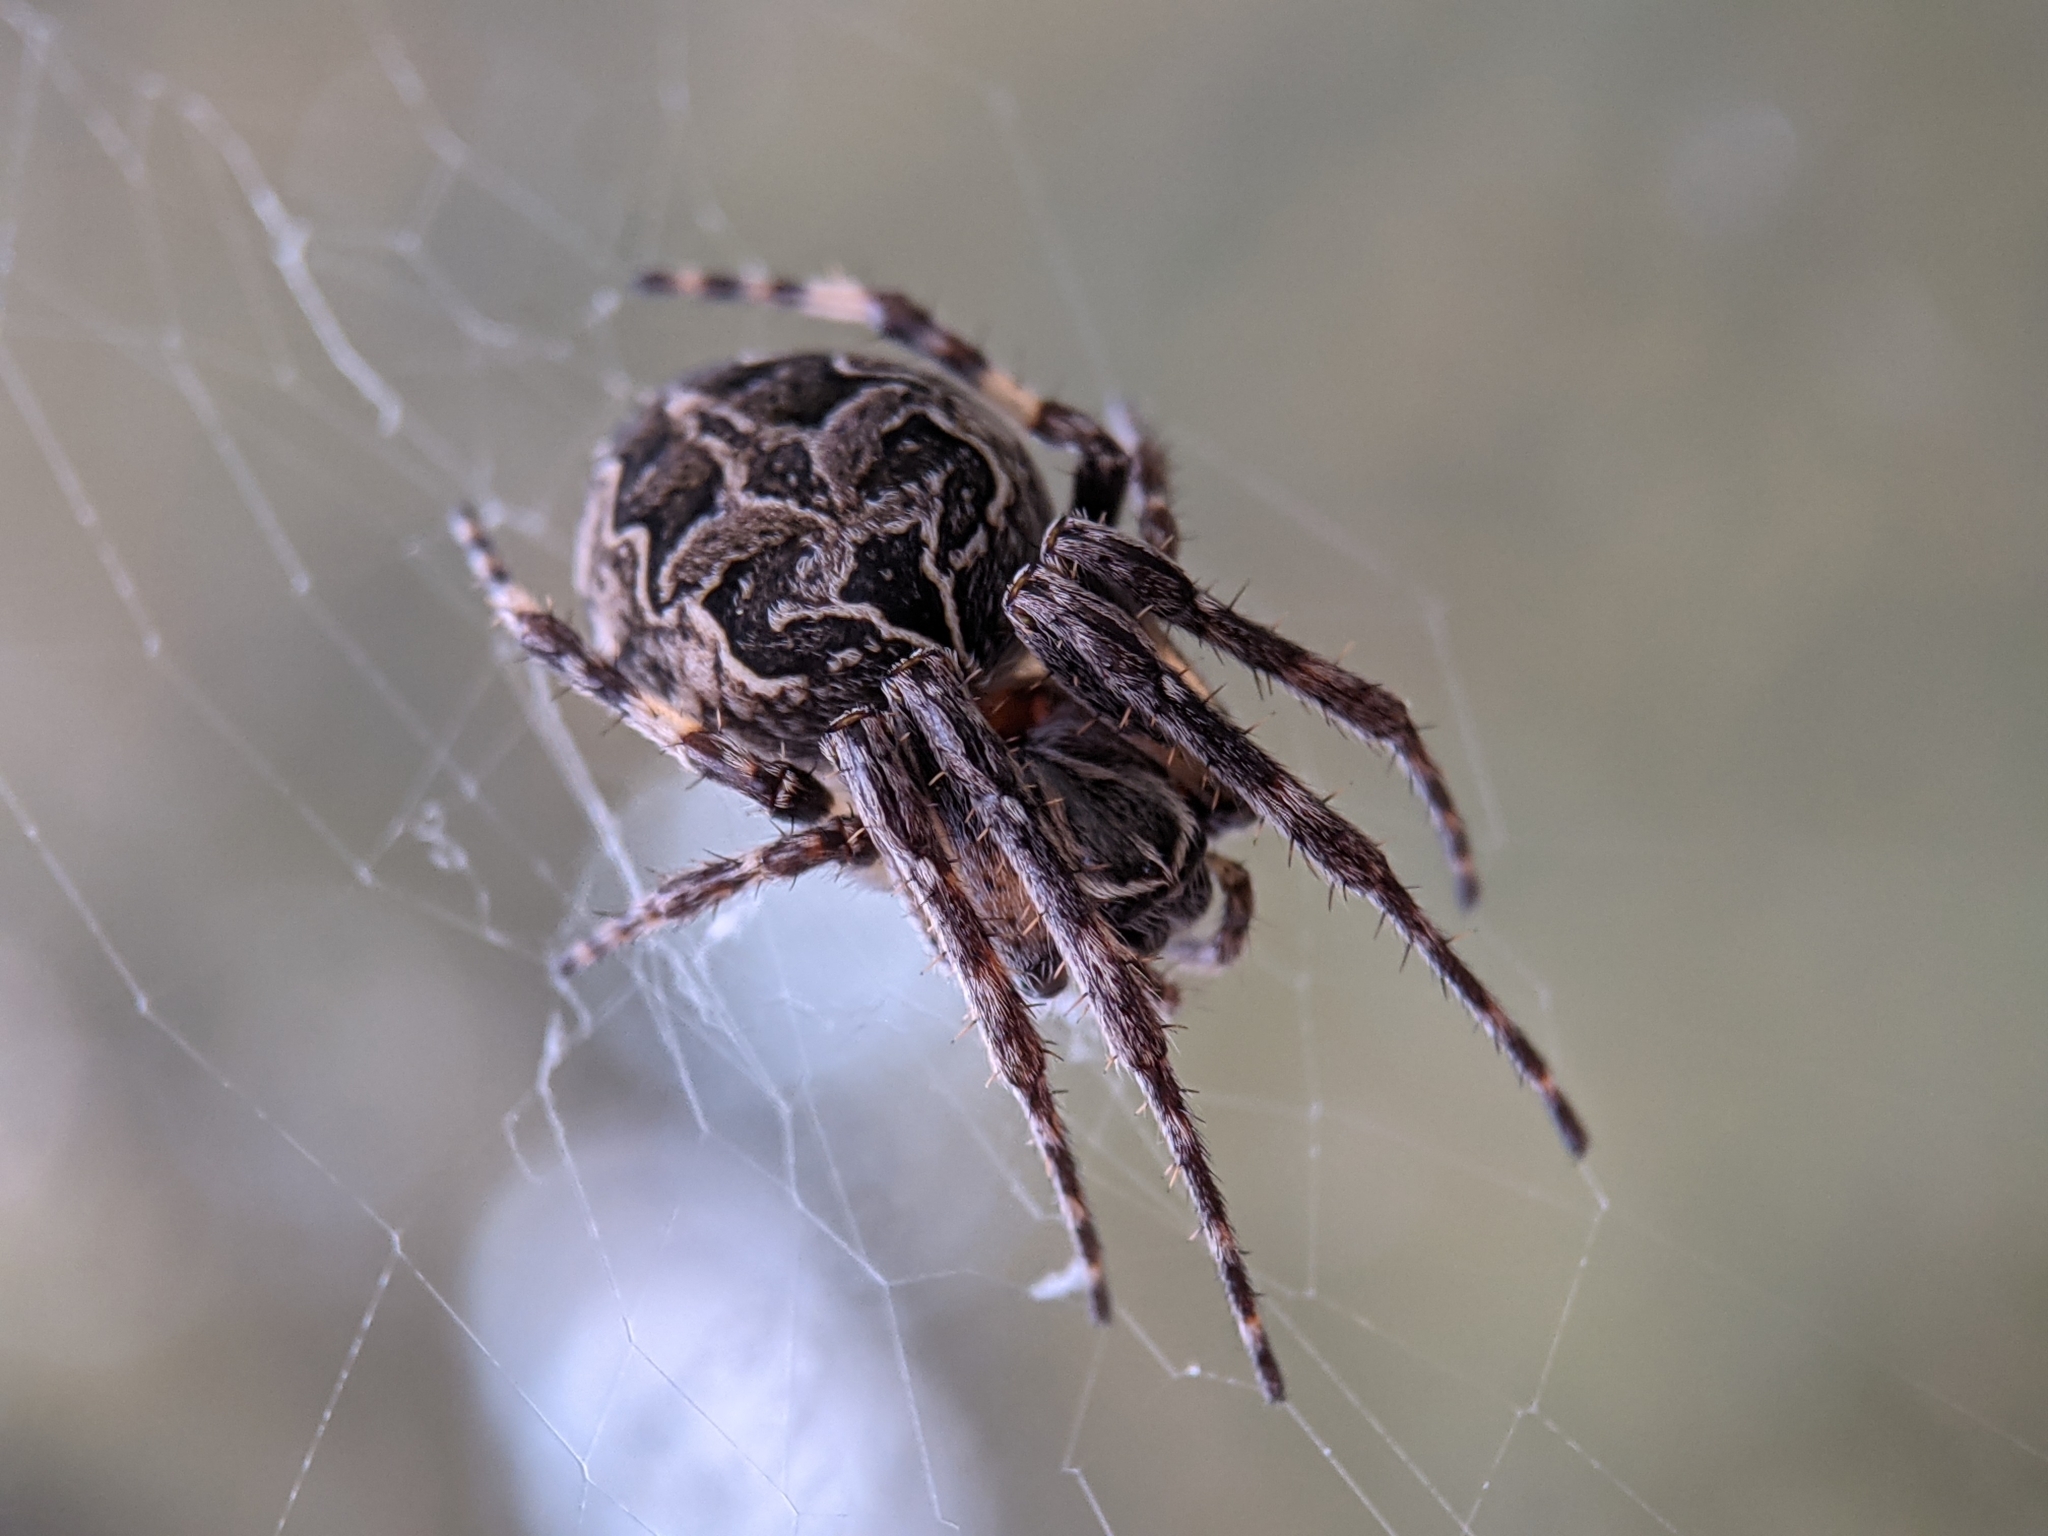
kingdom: Animalia
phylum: Arthropoda
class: Arachnida
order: Araneae
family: Araneidae
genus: Larinioides
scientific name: Larinioides sclopetarius
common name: Bridge orbweaver
